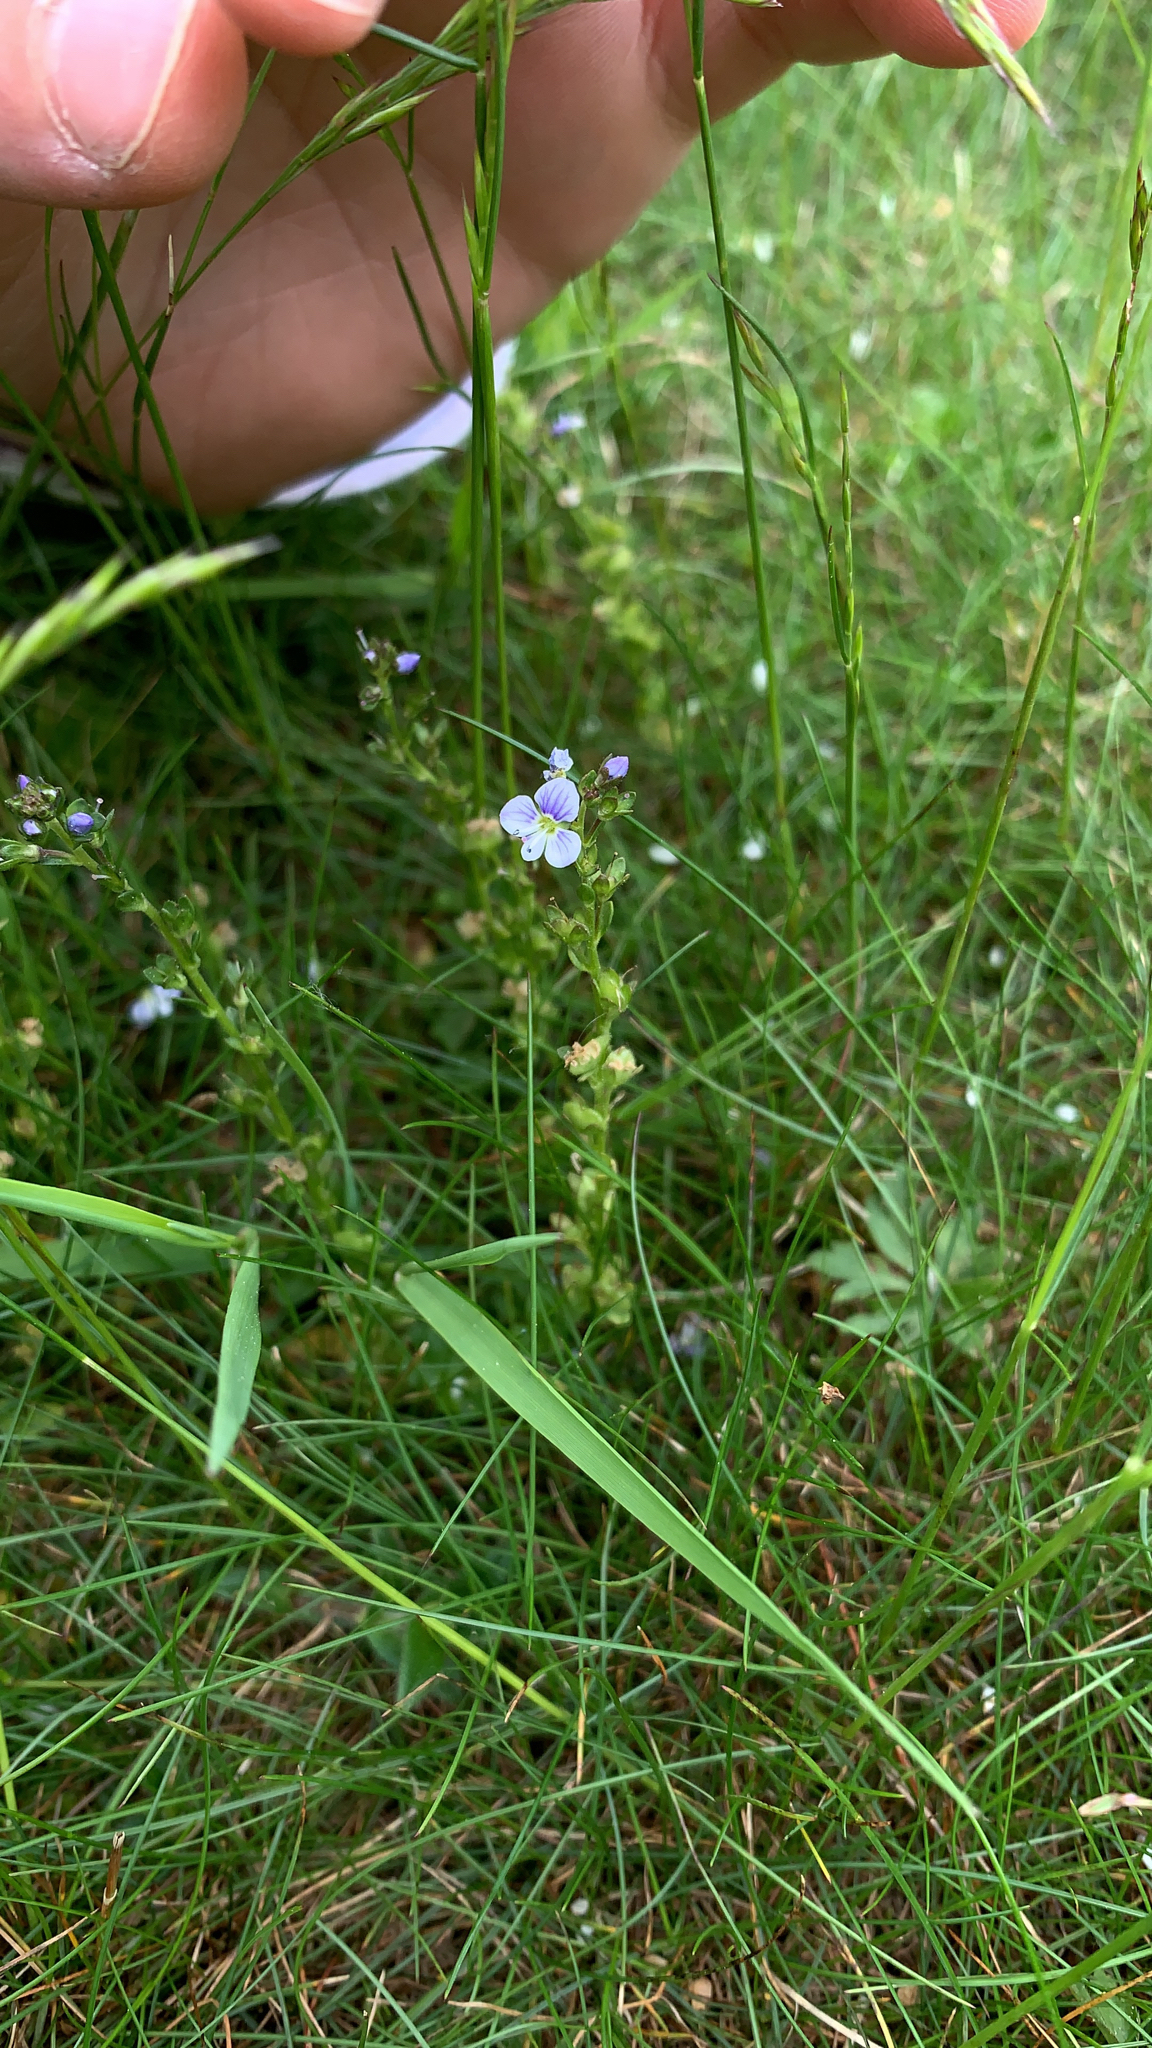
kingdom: Plantae
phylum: Tracheophyta
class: Magnoliopsida
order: Lamiales
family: Plantaginaceae
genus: Veronica
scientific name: Veronica serpyllifolia
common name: Thyme-leaved speedwell
